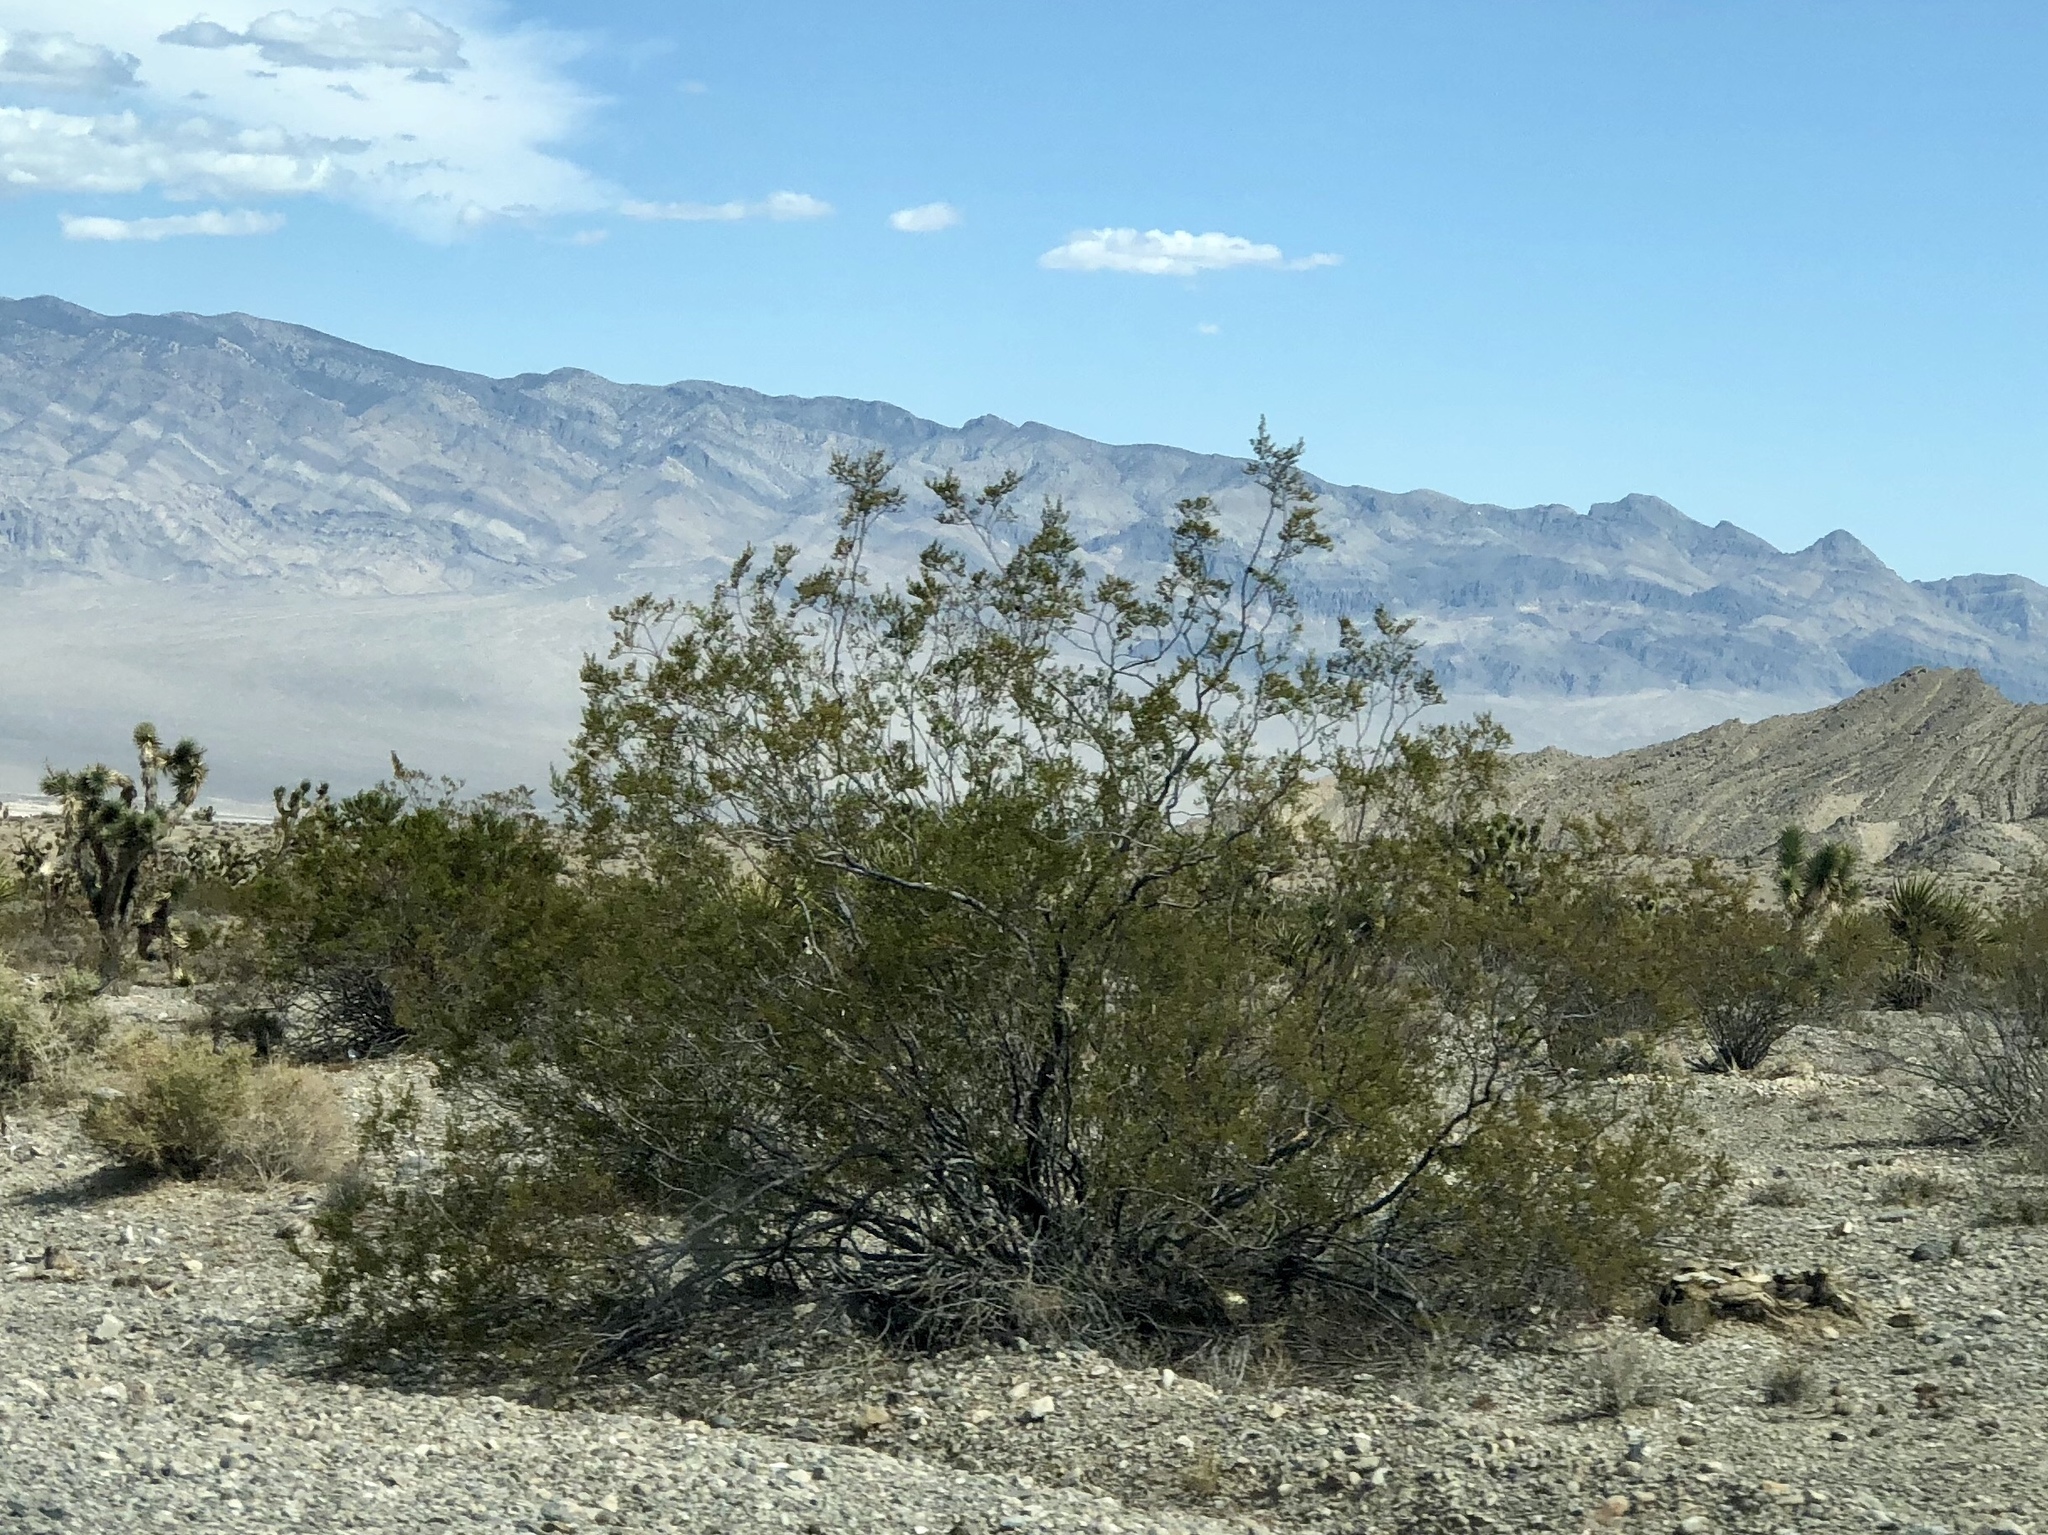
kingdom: Plantae
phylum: Tracheophyta
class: Magnoliopsida
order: Zygophyllales
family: Zygophyllaceae
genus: Larrea
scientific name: Larrea tridentata
